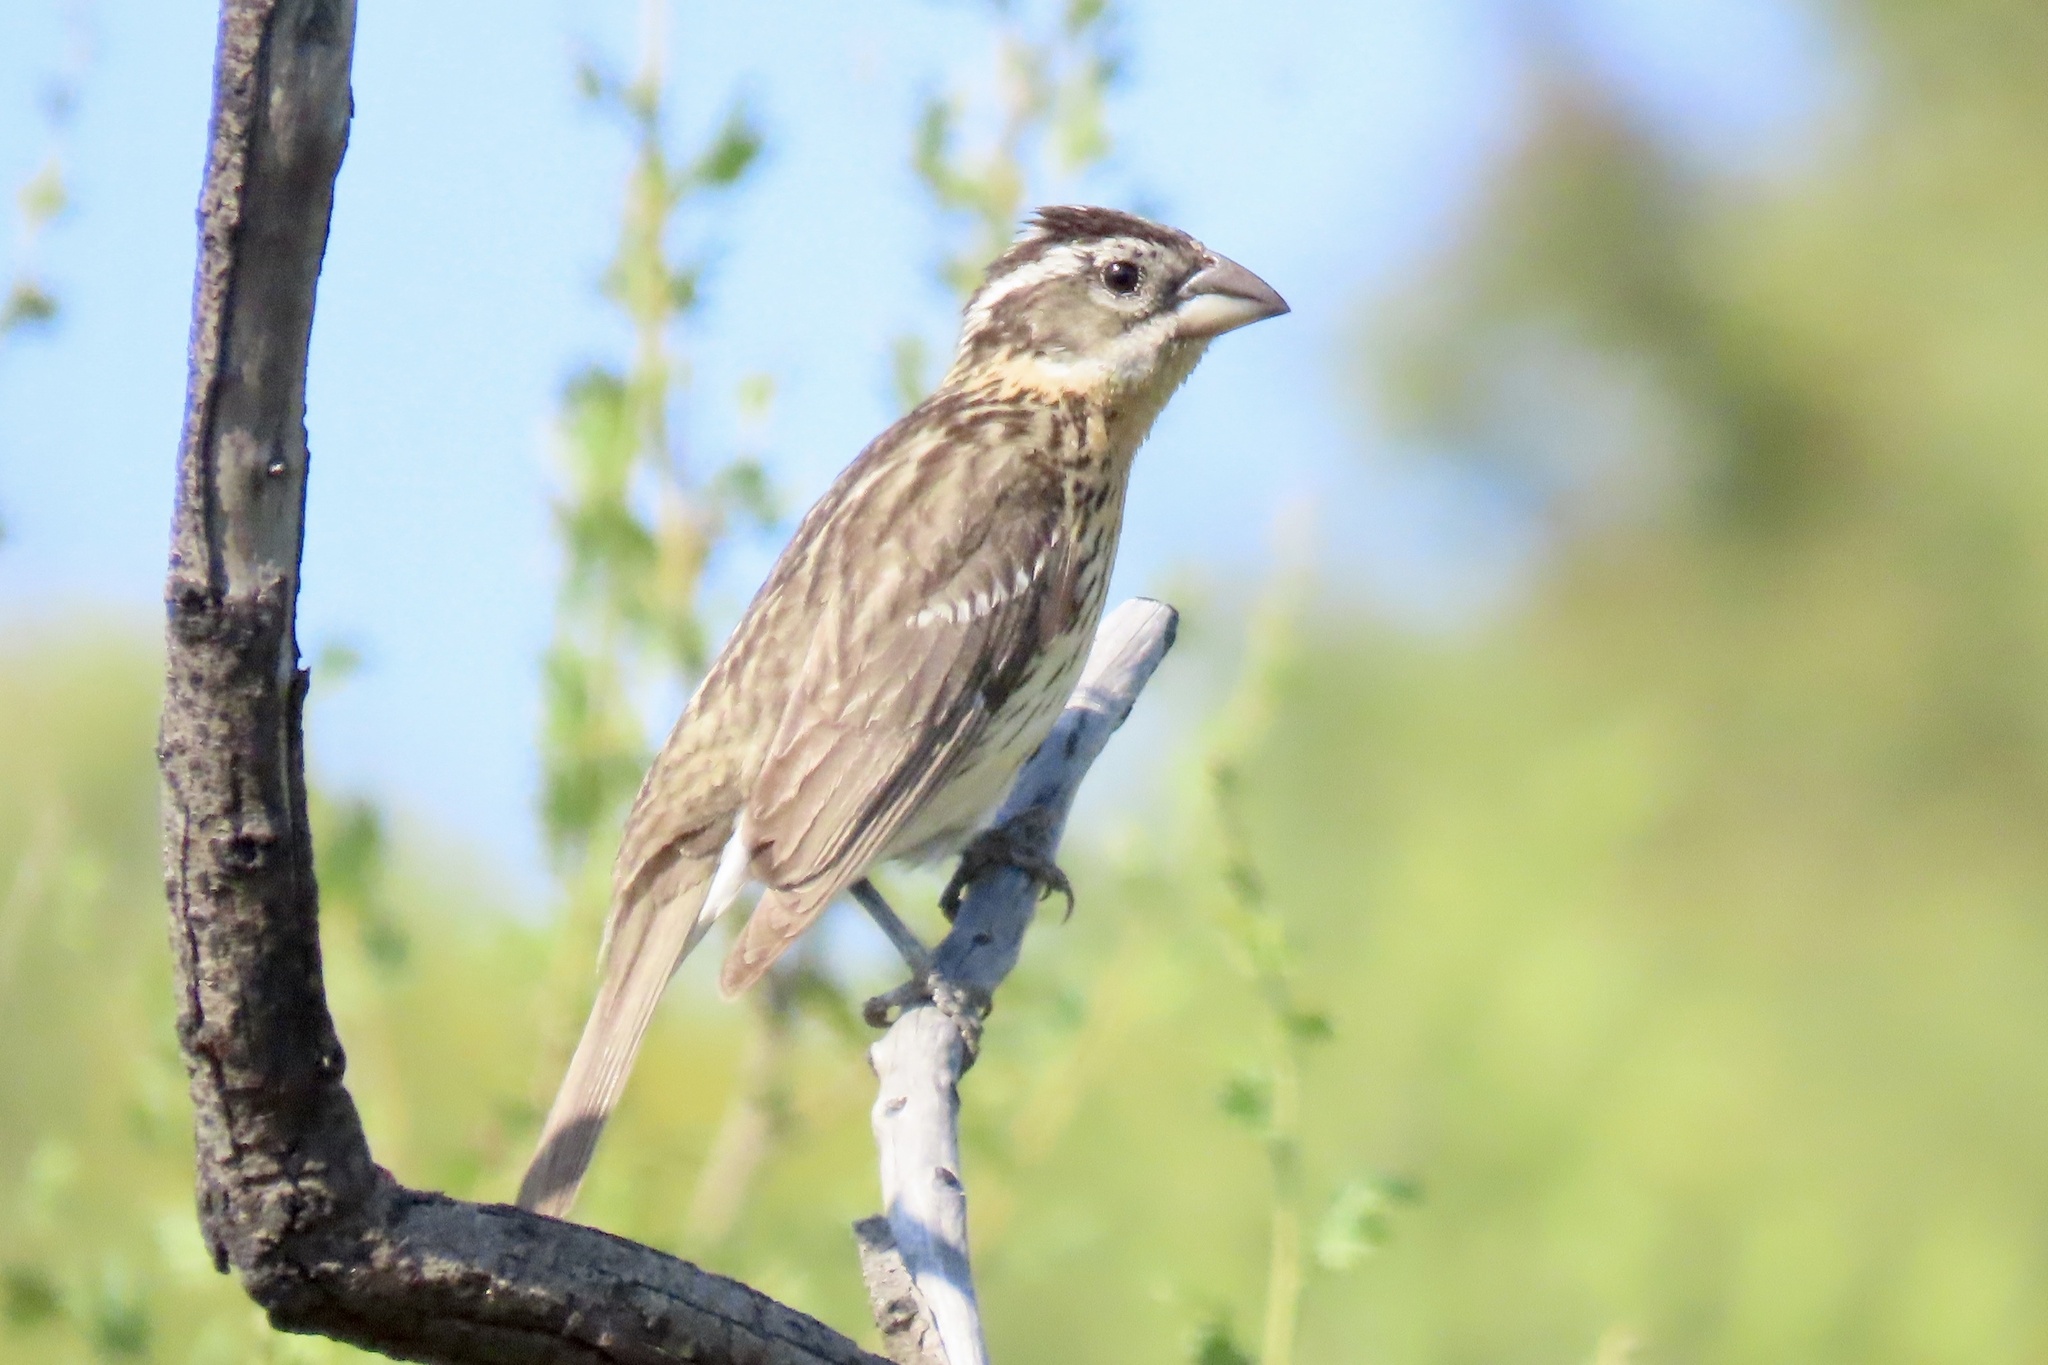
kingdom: Animalia
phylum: Chordata
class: Aves
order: Passeriformes
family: Cardinalidae
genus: Pheucticus
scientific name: Pheucticus melanocephalus
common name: Black-headed grosbeak
